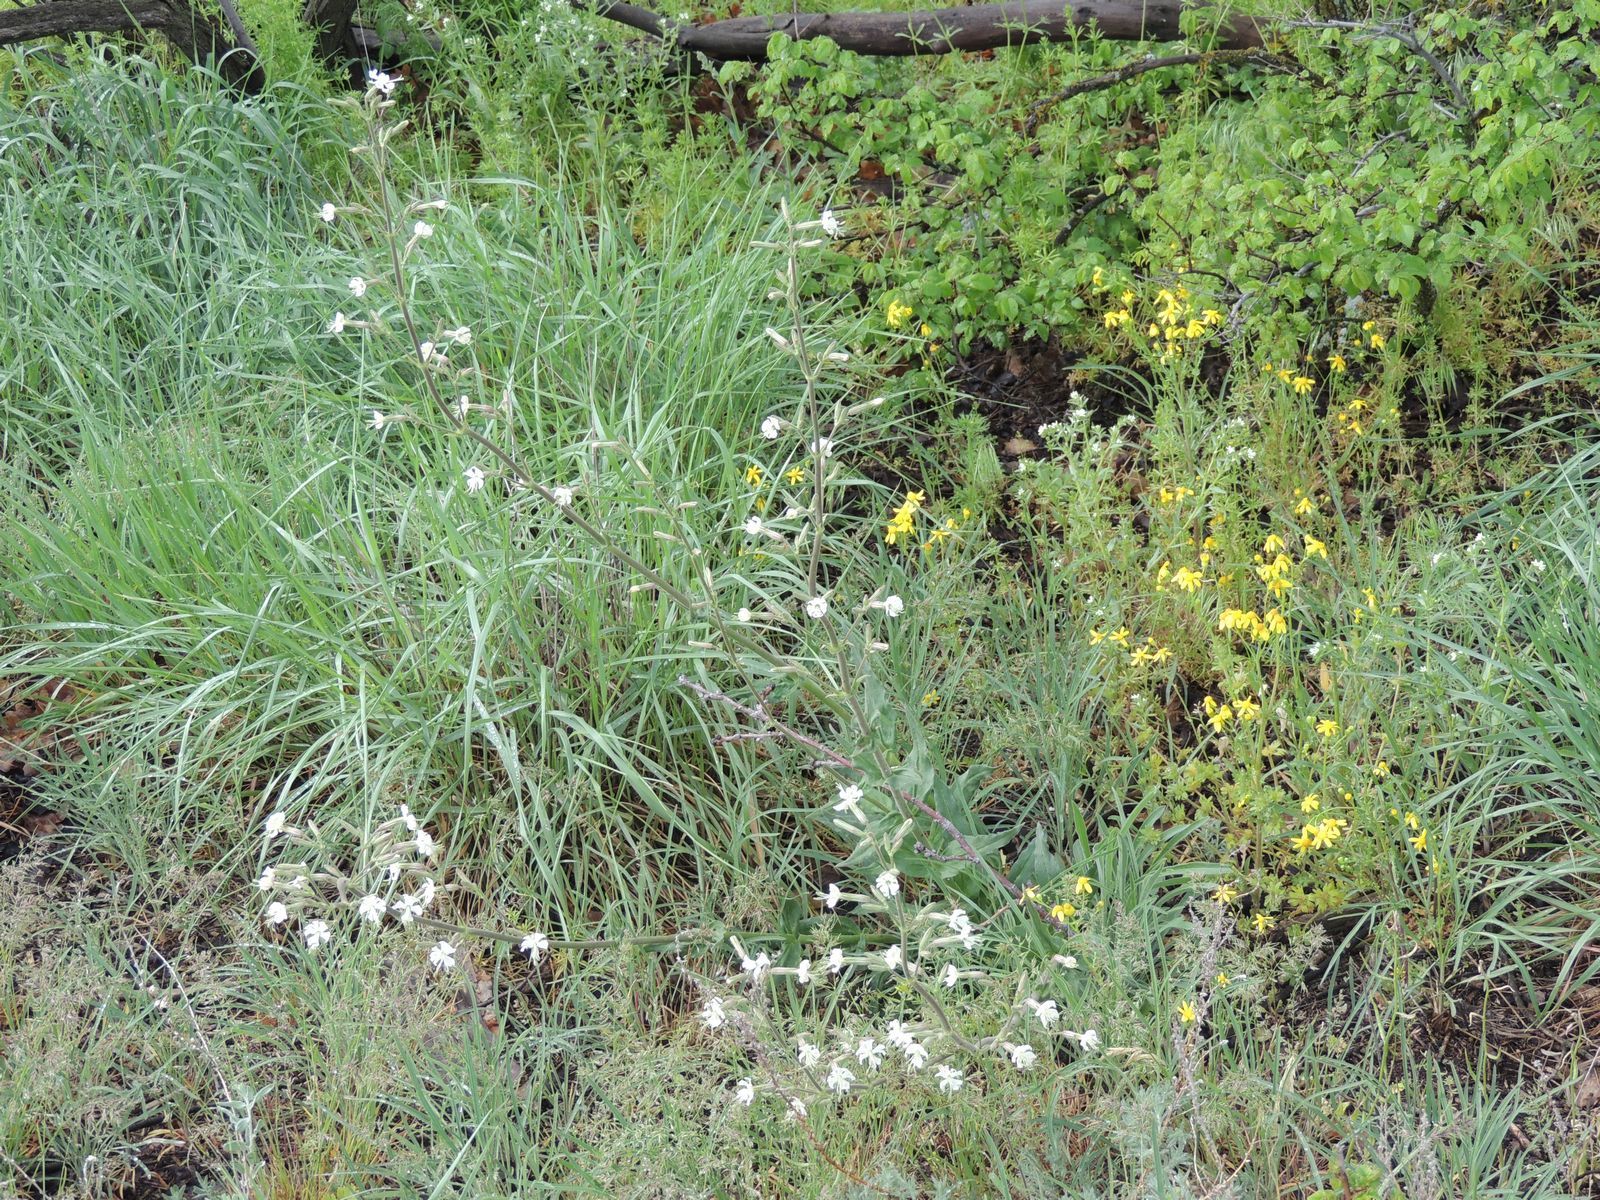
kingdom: Plantae
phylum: Tracheophyta
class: Magnoliopsida
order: Caryophyllales
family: Caryophyllaceae
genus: Silene
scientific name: Silene viscosa
